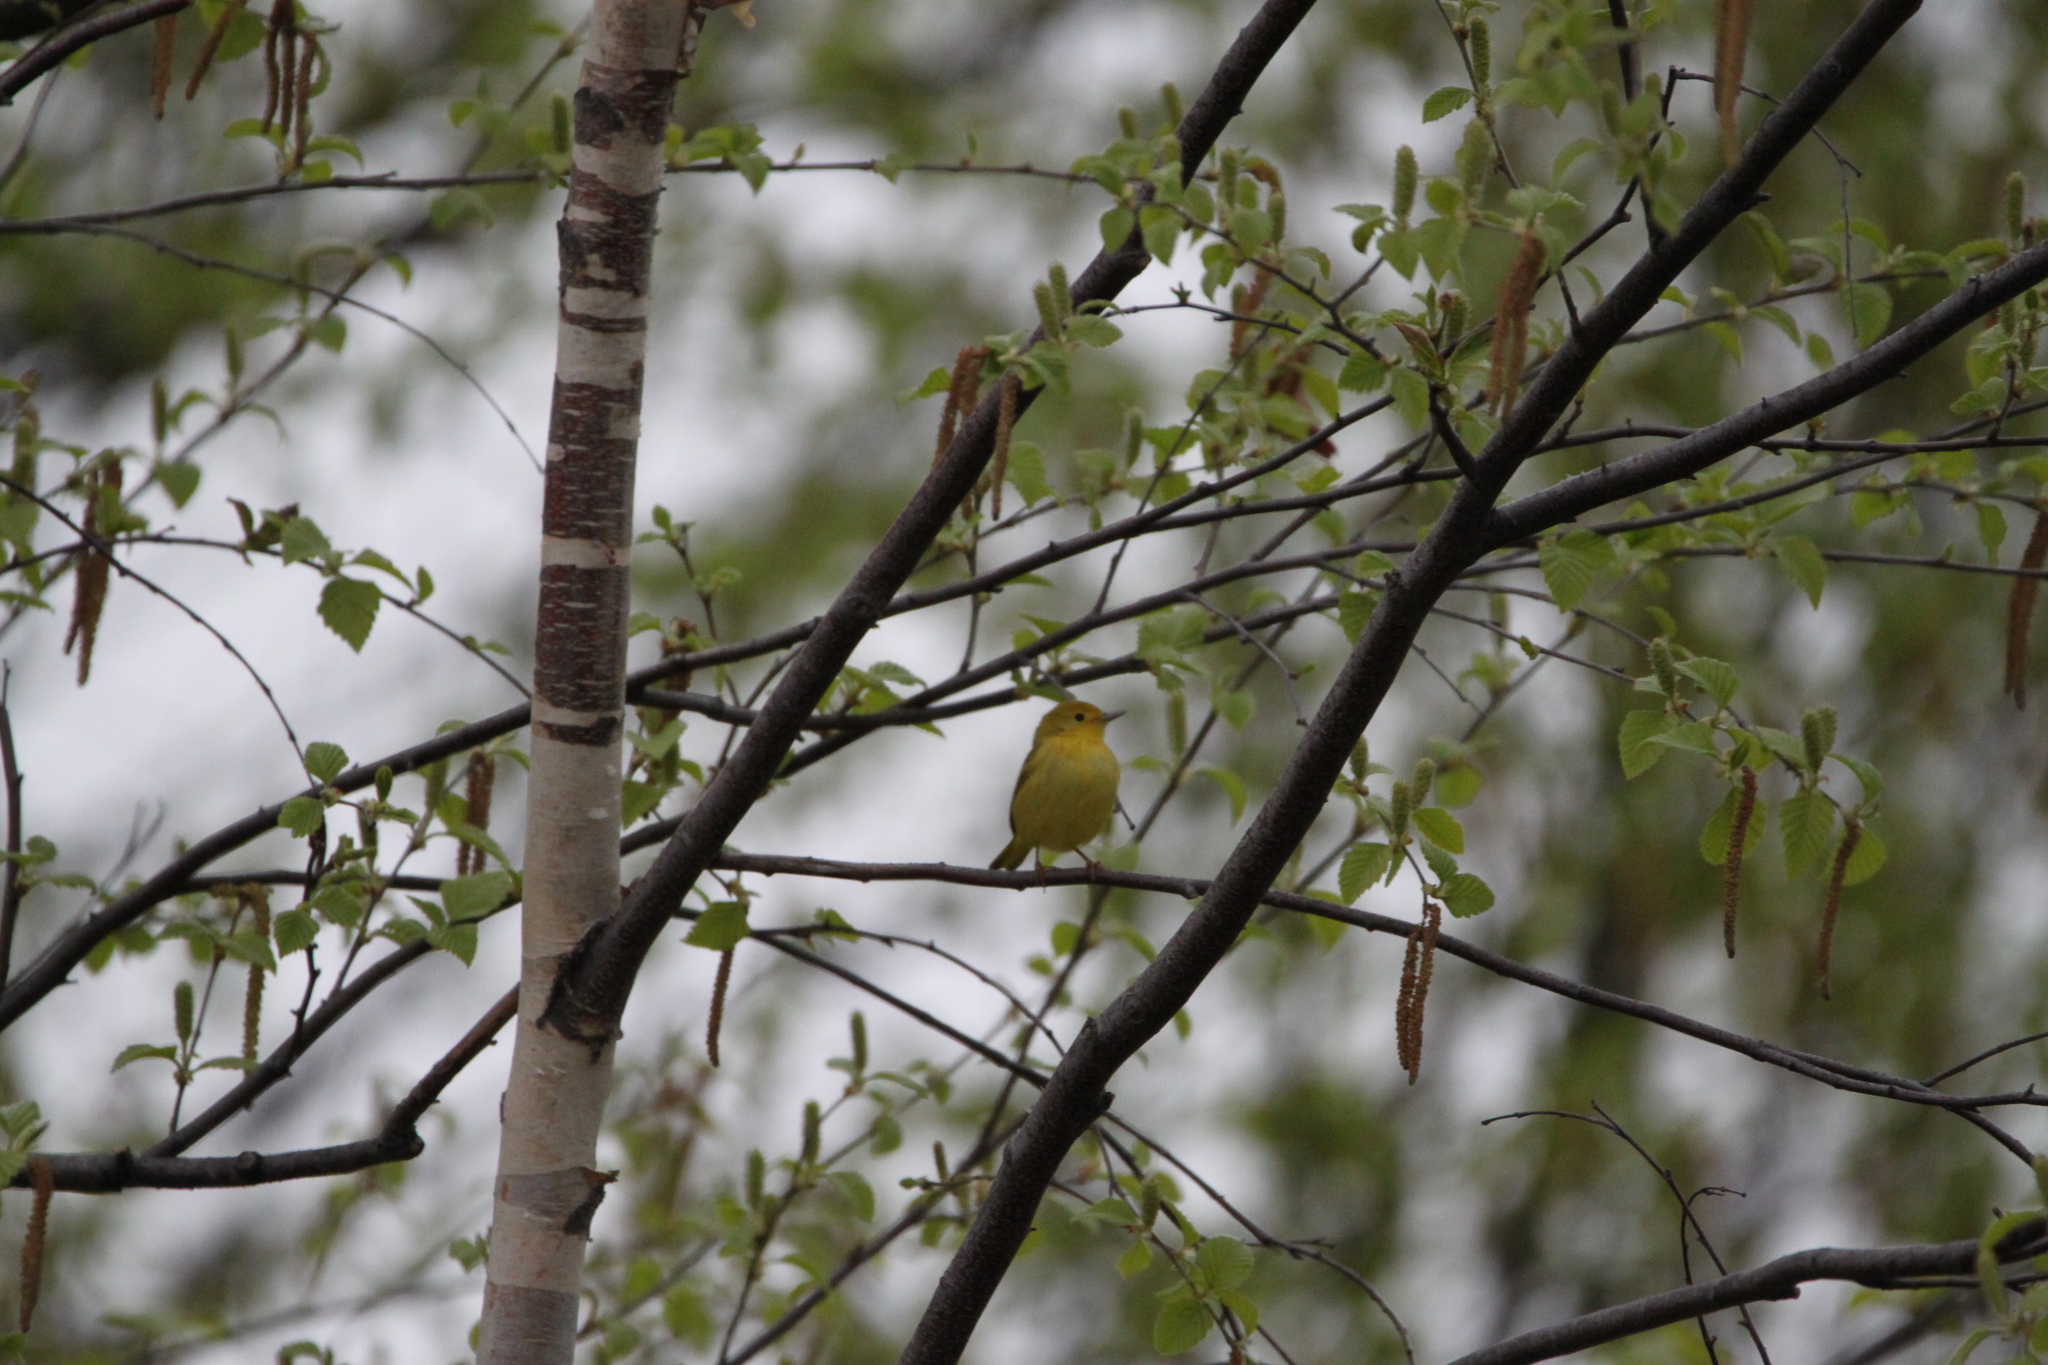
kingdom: Animalia
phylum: Chordata
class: Aves
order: Passeriformes
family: Parulidae
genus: Setophaga
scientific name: Setophaga petechia
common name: Yellow warbler
